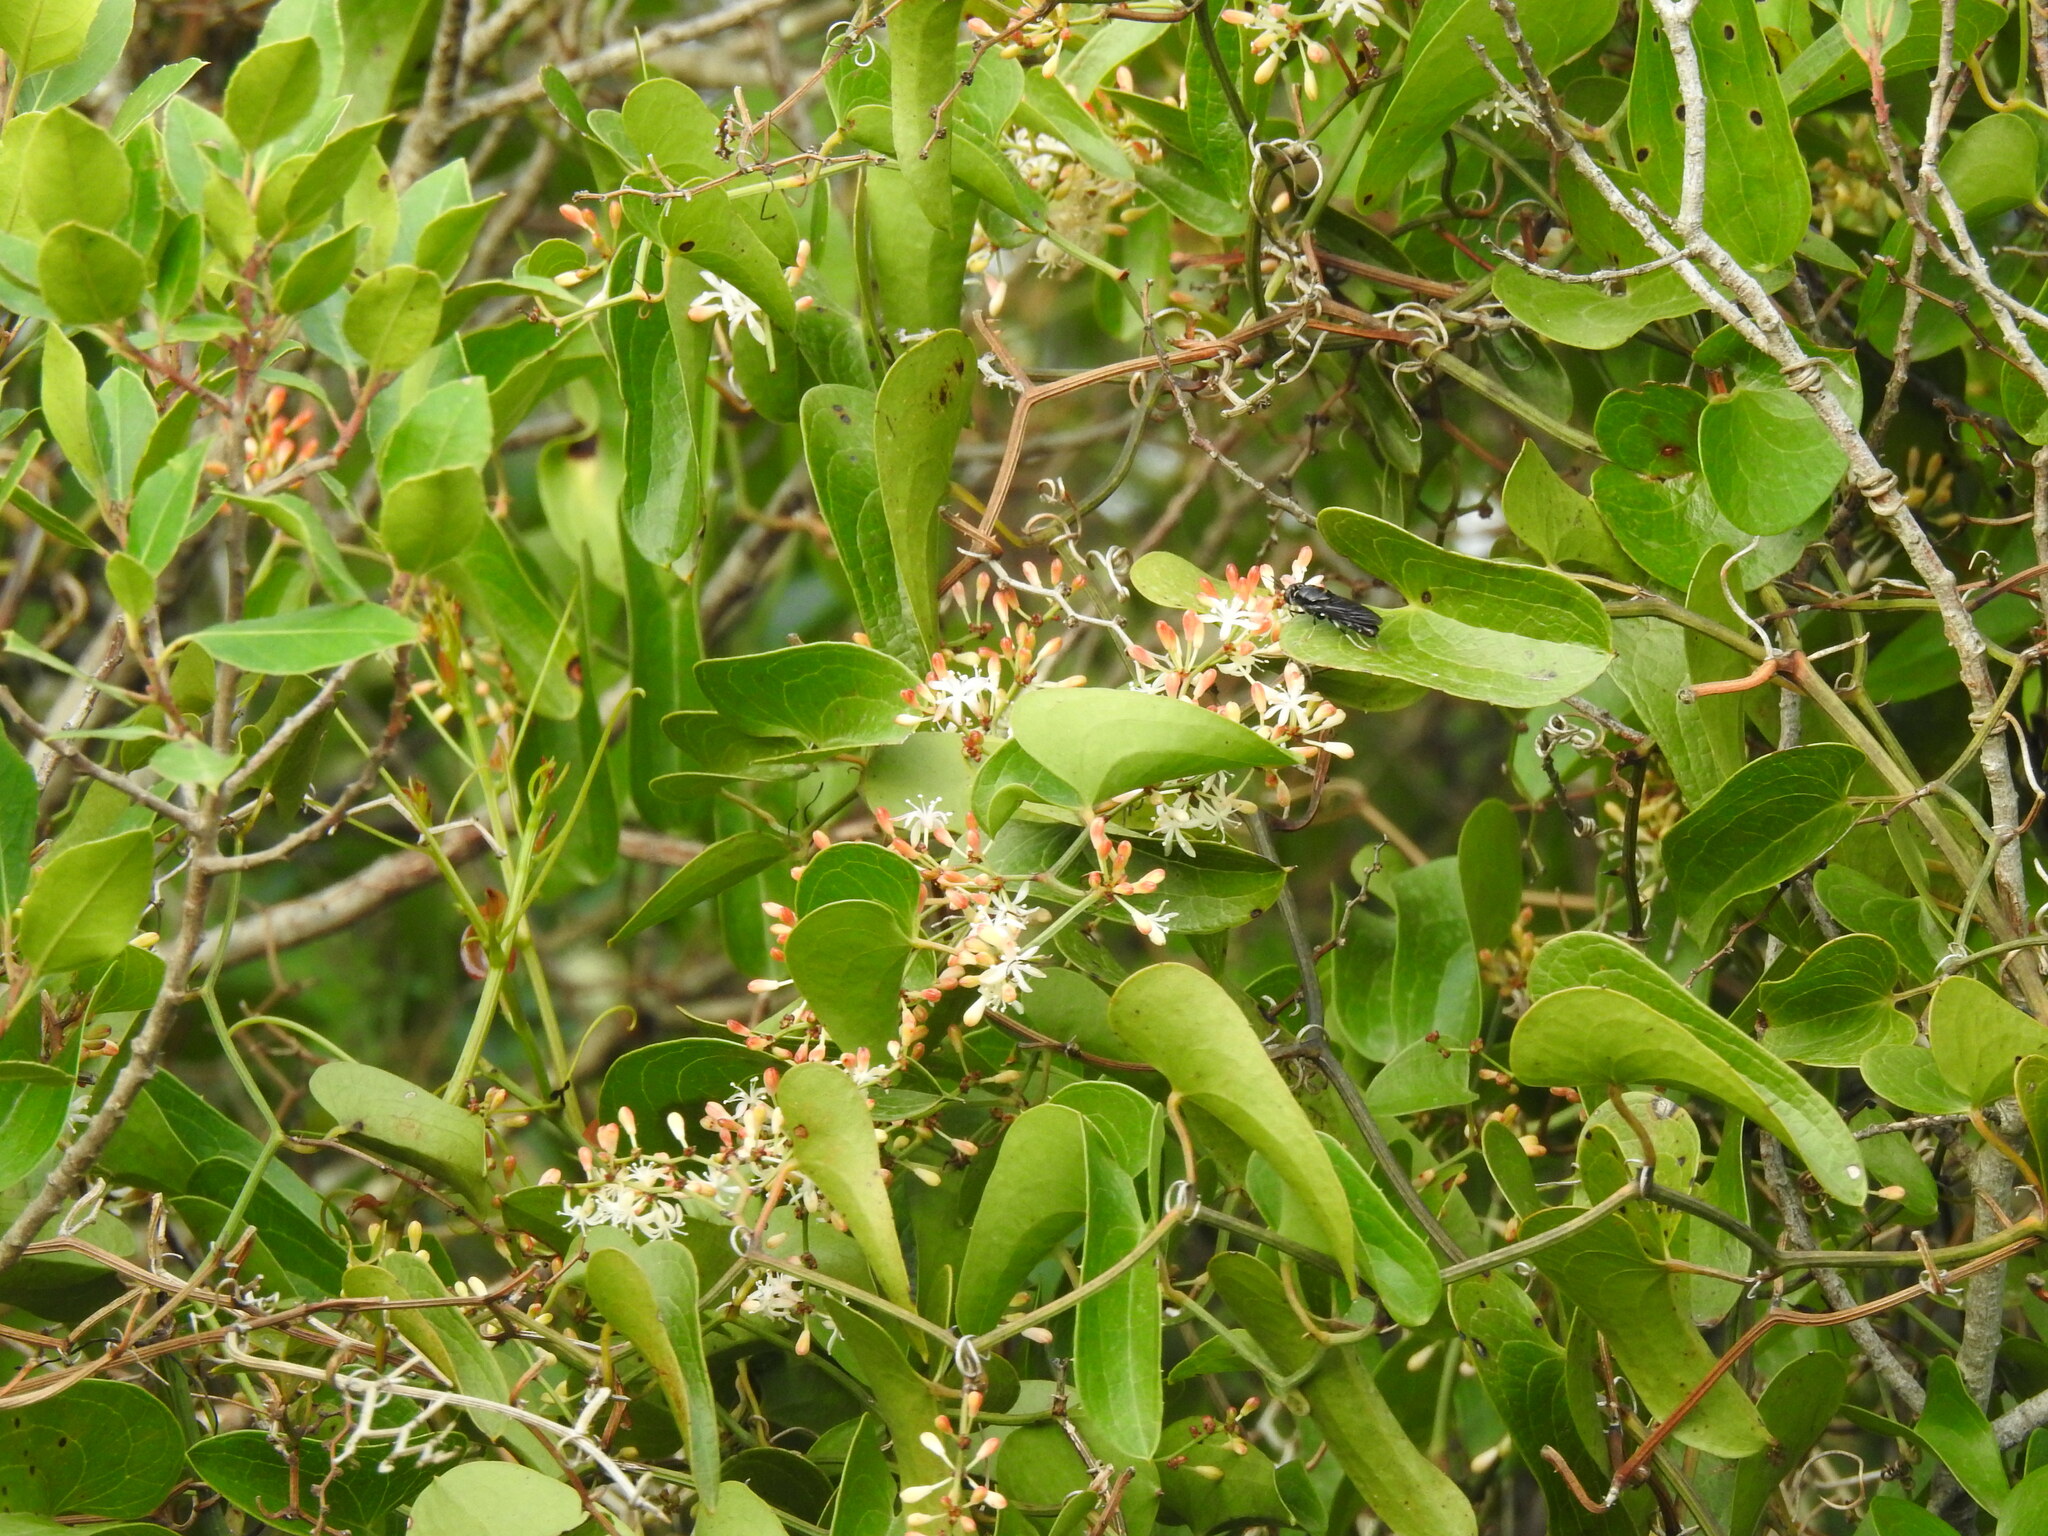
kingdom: Plantae
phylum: Tracheophyta
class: Liliopsida
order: Liliales
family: Smilacaceae
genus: Smilax
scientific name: Smilax aspera
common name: Common smilax
